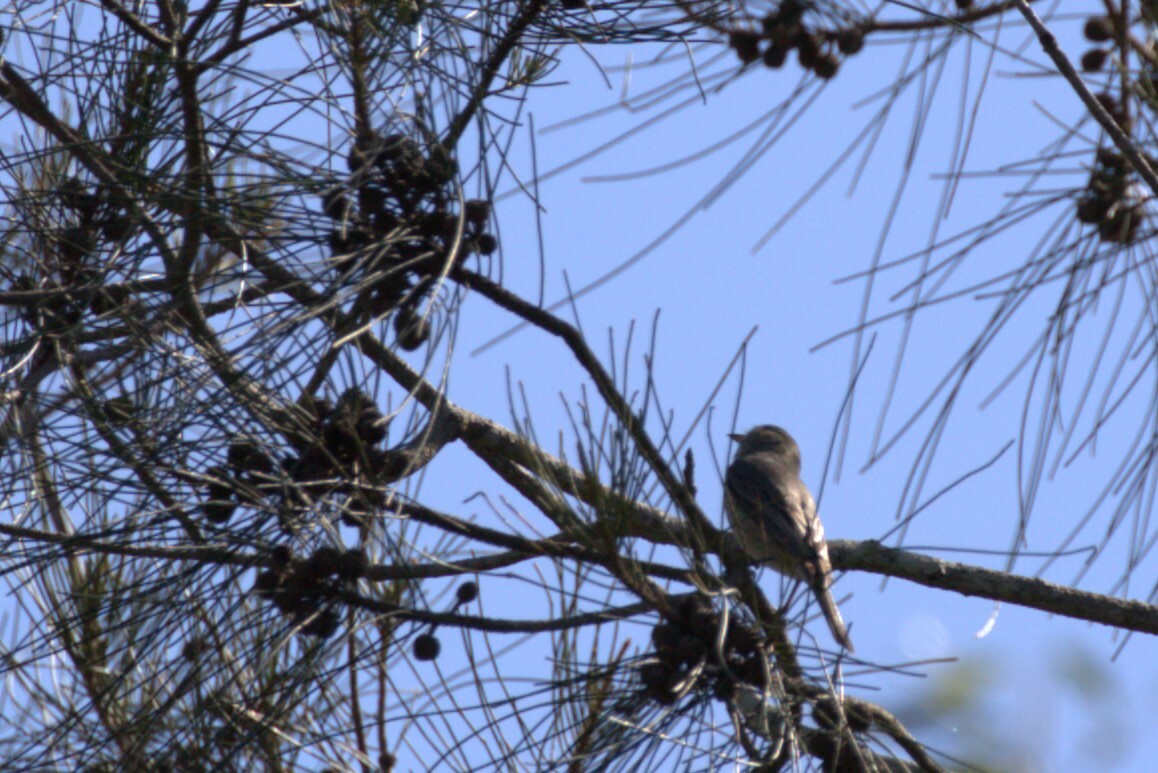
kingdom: Animalia
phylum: Chordata
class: Aves
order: Passeriformes
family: Pachycephalidae
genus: Pachycephala
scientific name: Pachycephala rufiventris
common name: Rufous whistler
